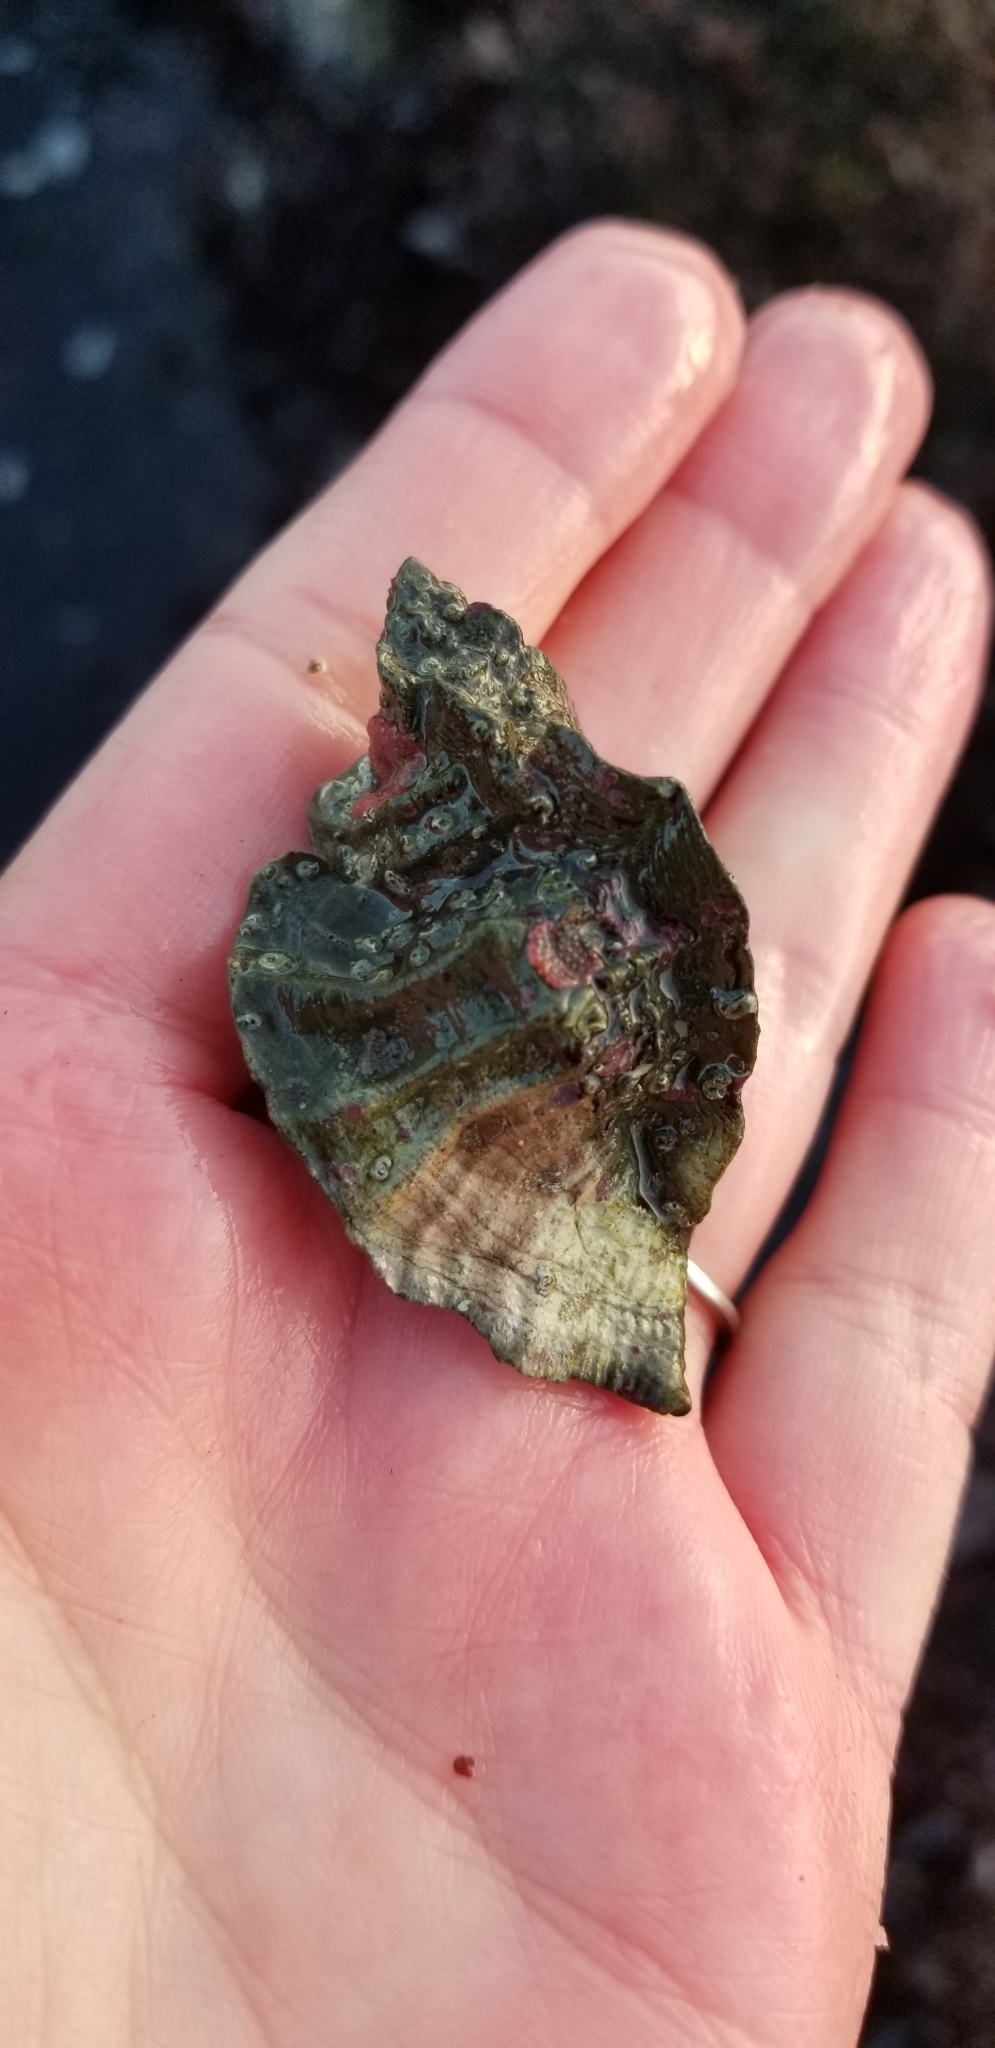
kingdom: Animalia
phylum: Mollusca
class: Gastropoda
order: Neogastropoda
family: Muricidae
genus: Ceratostoma
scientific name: Ceratostoma foliatum
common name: Foliate thorn purpura
